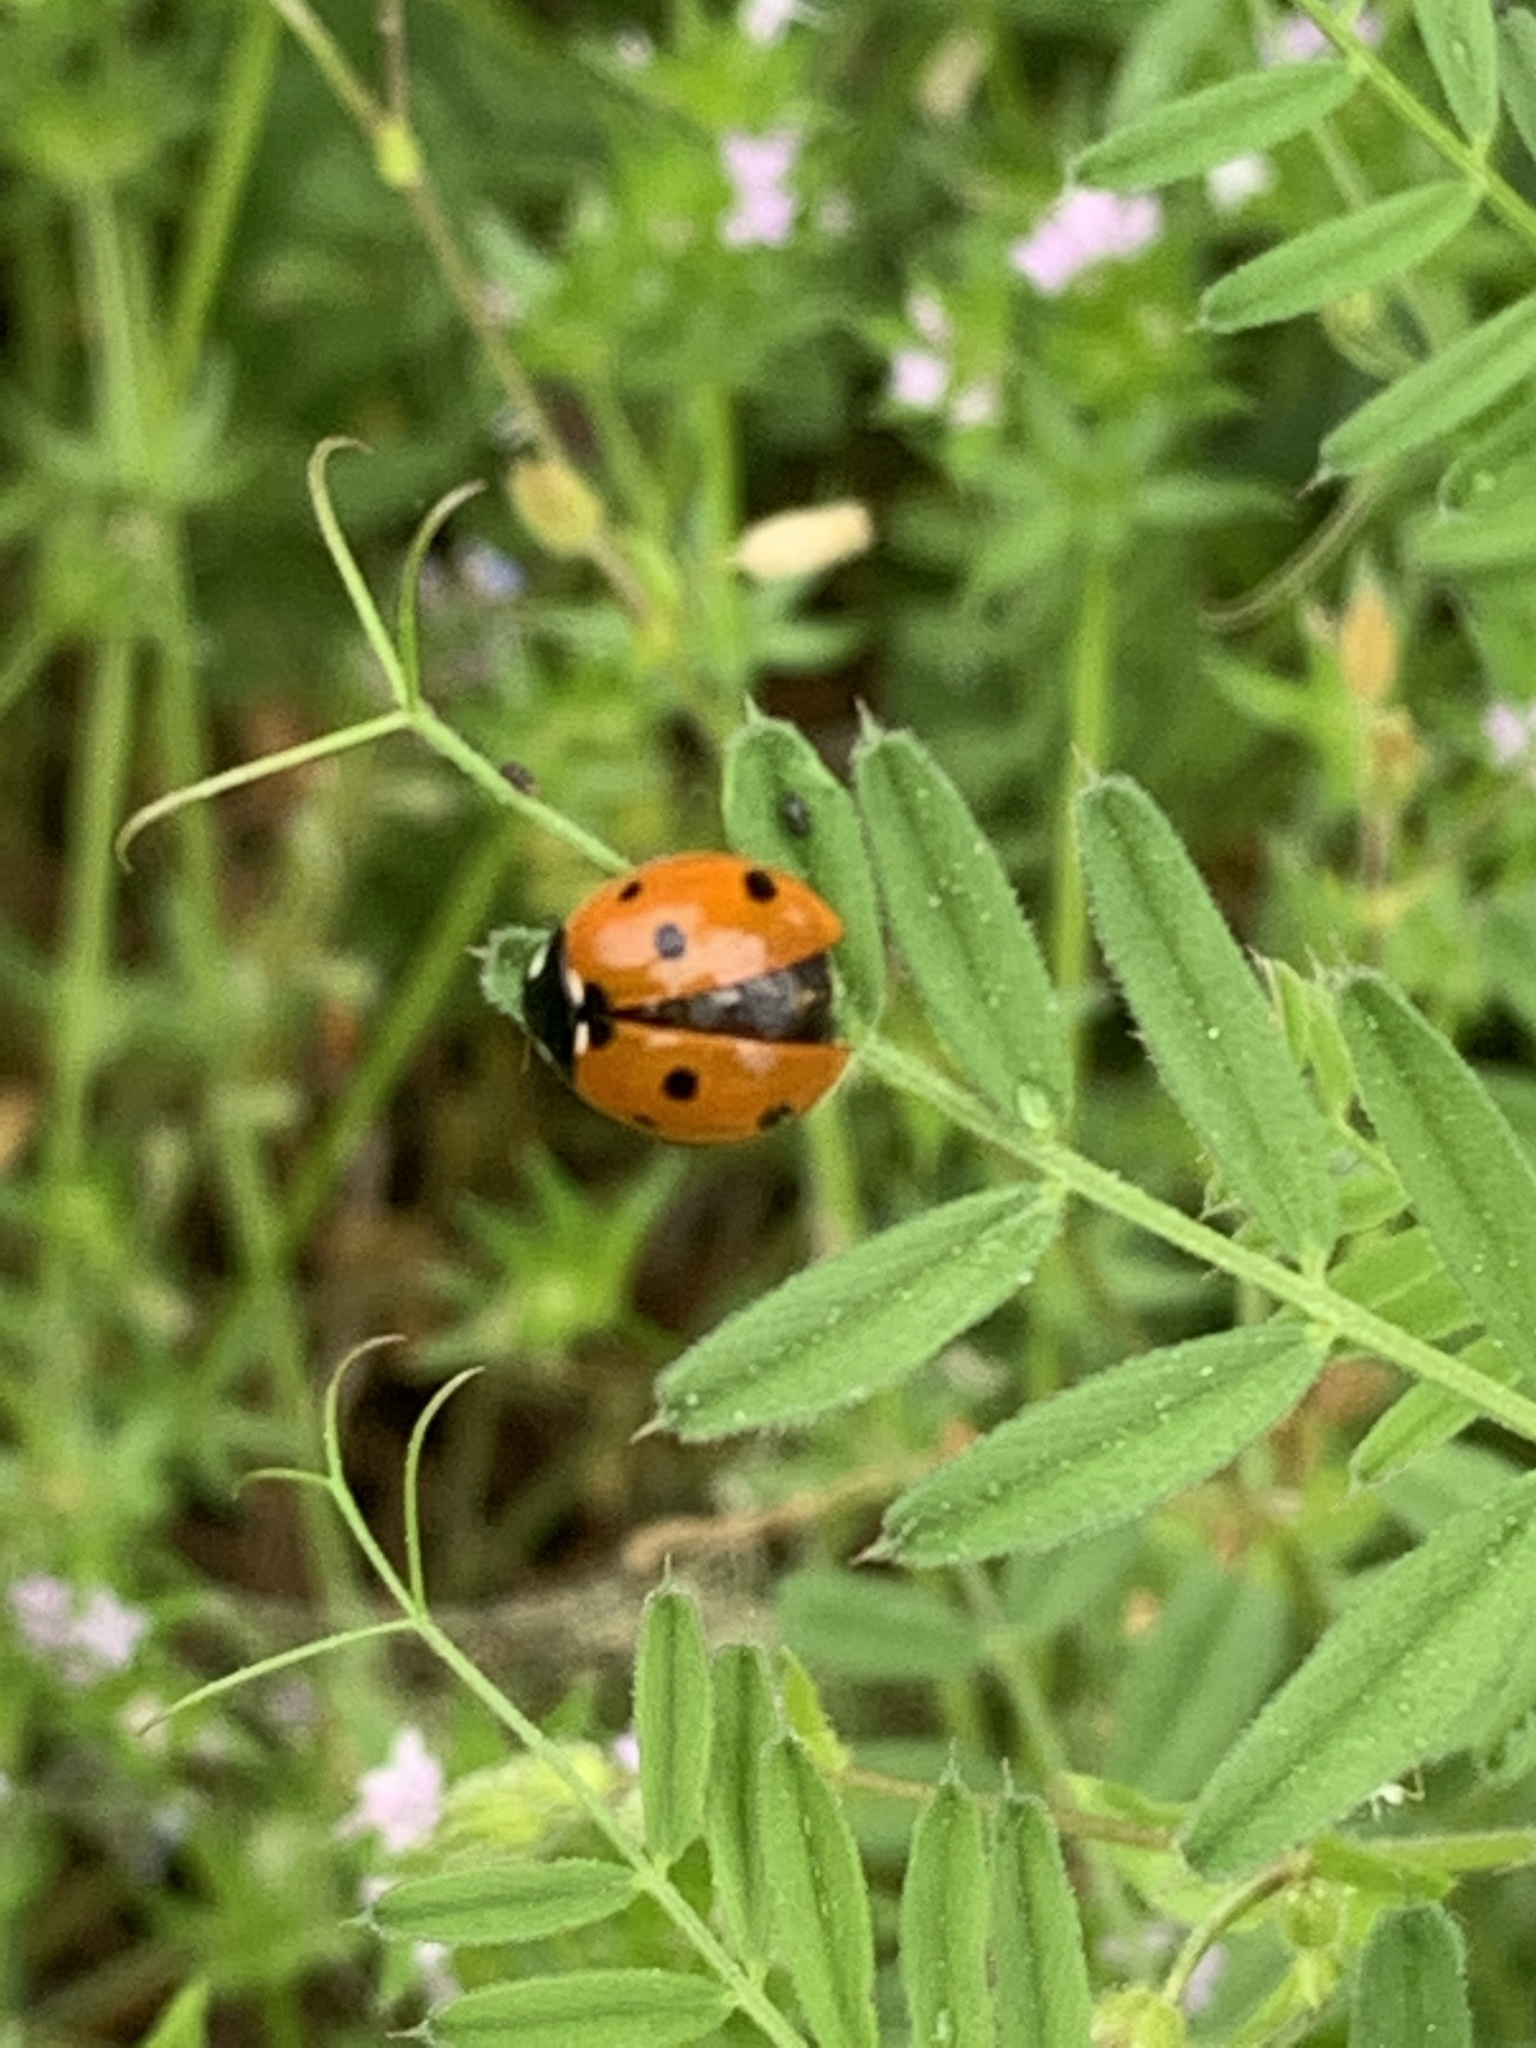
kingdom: Animalia
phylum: Arthropoda
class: Insecta
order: Coleoptera
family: Coccinellidae
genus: Coccinella
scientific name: Coccinella septempunctata
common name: Sevenspotted lady beetle
